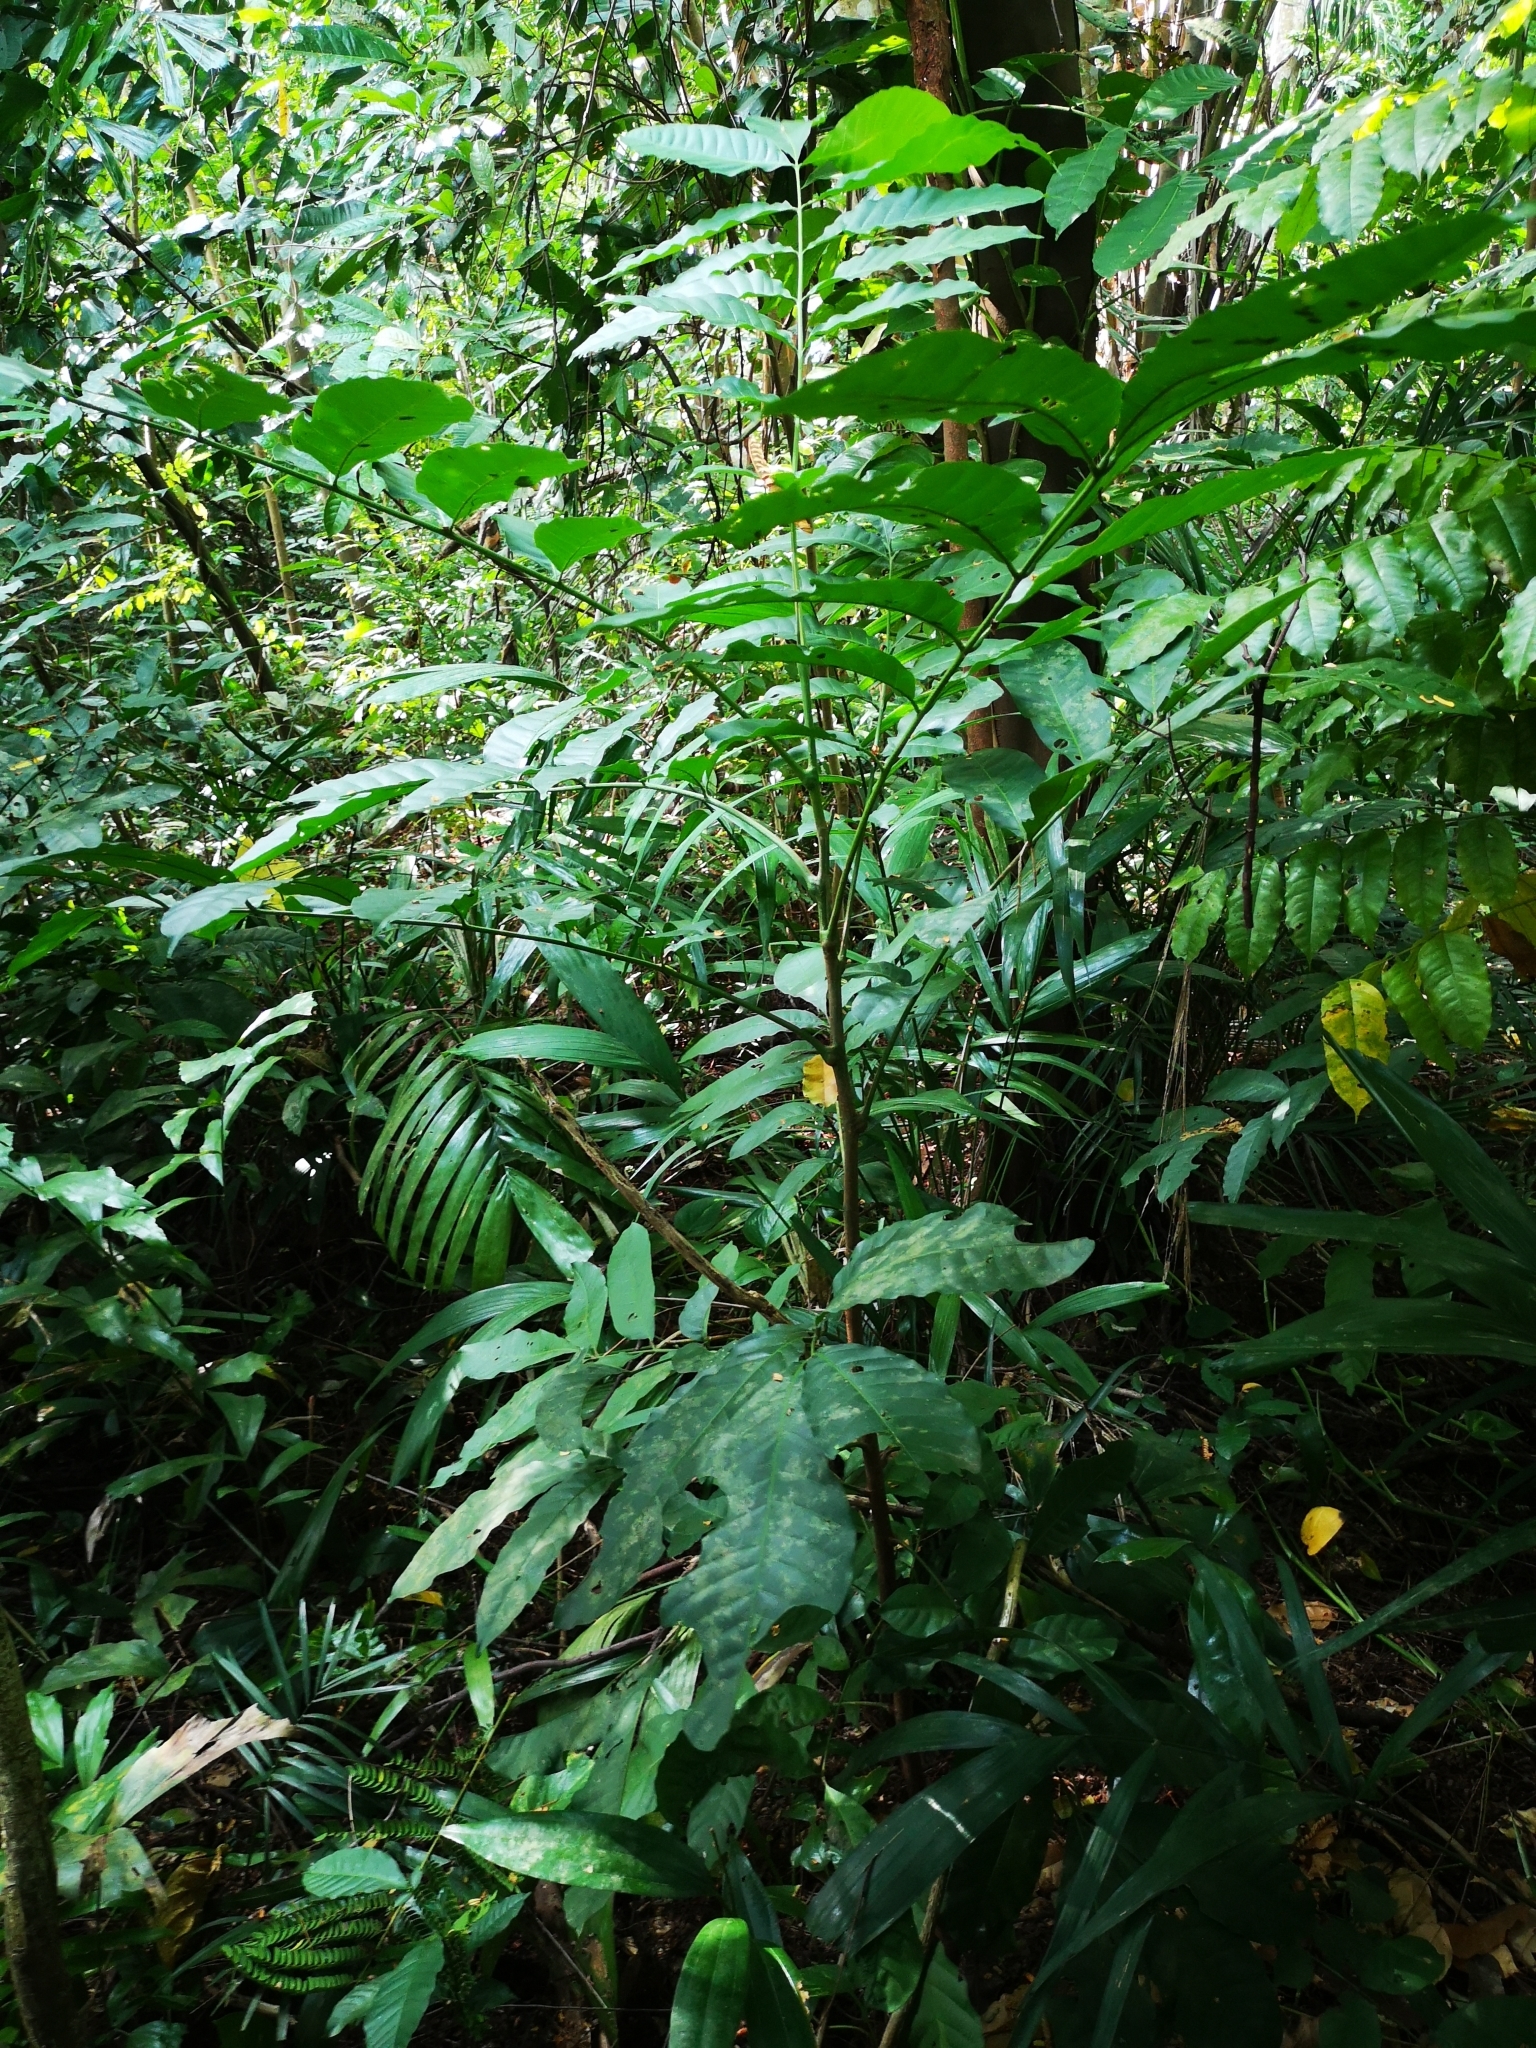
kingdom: Plantae
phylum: Tracheophyta
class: Magnoliopsida
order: Sapindales
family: Meliaceae
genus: Aphanamixis
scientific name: Aphanamixis polystachya
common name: Pithraj tree
